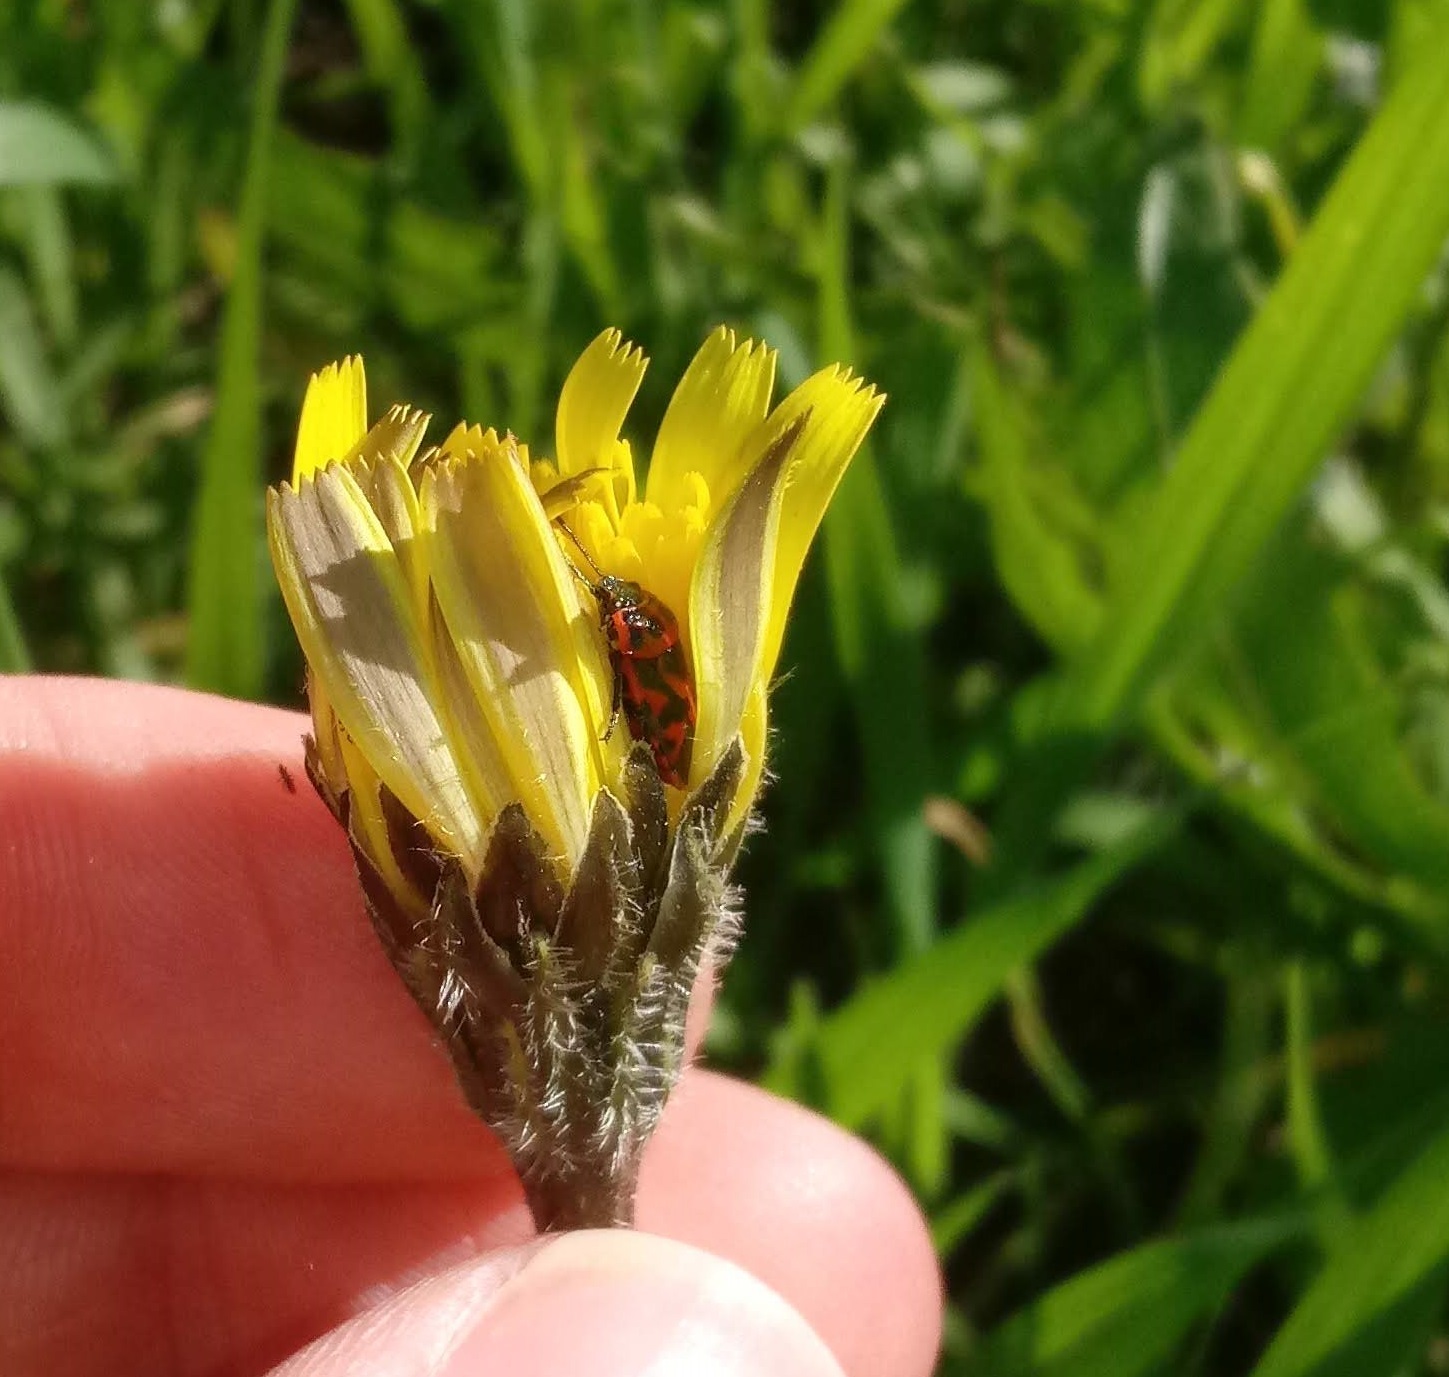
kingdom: Animalia
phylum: Arthropoda
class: Insecta
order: Hemiptera
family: Pentatomidae
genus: Eurydema
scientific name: Eurydema ornata
